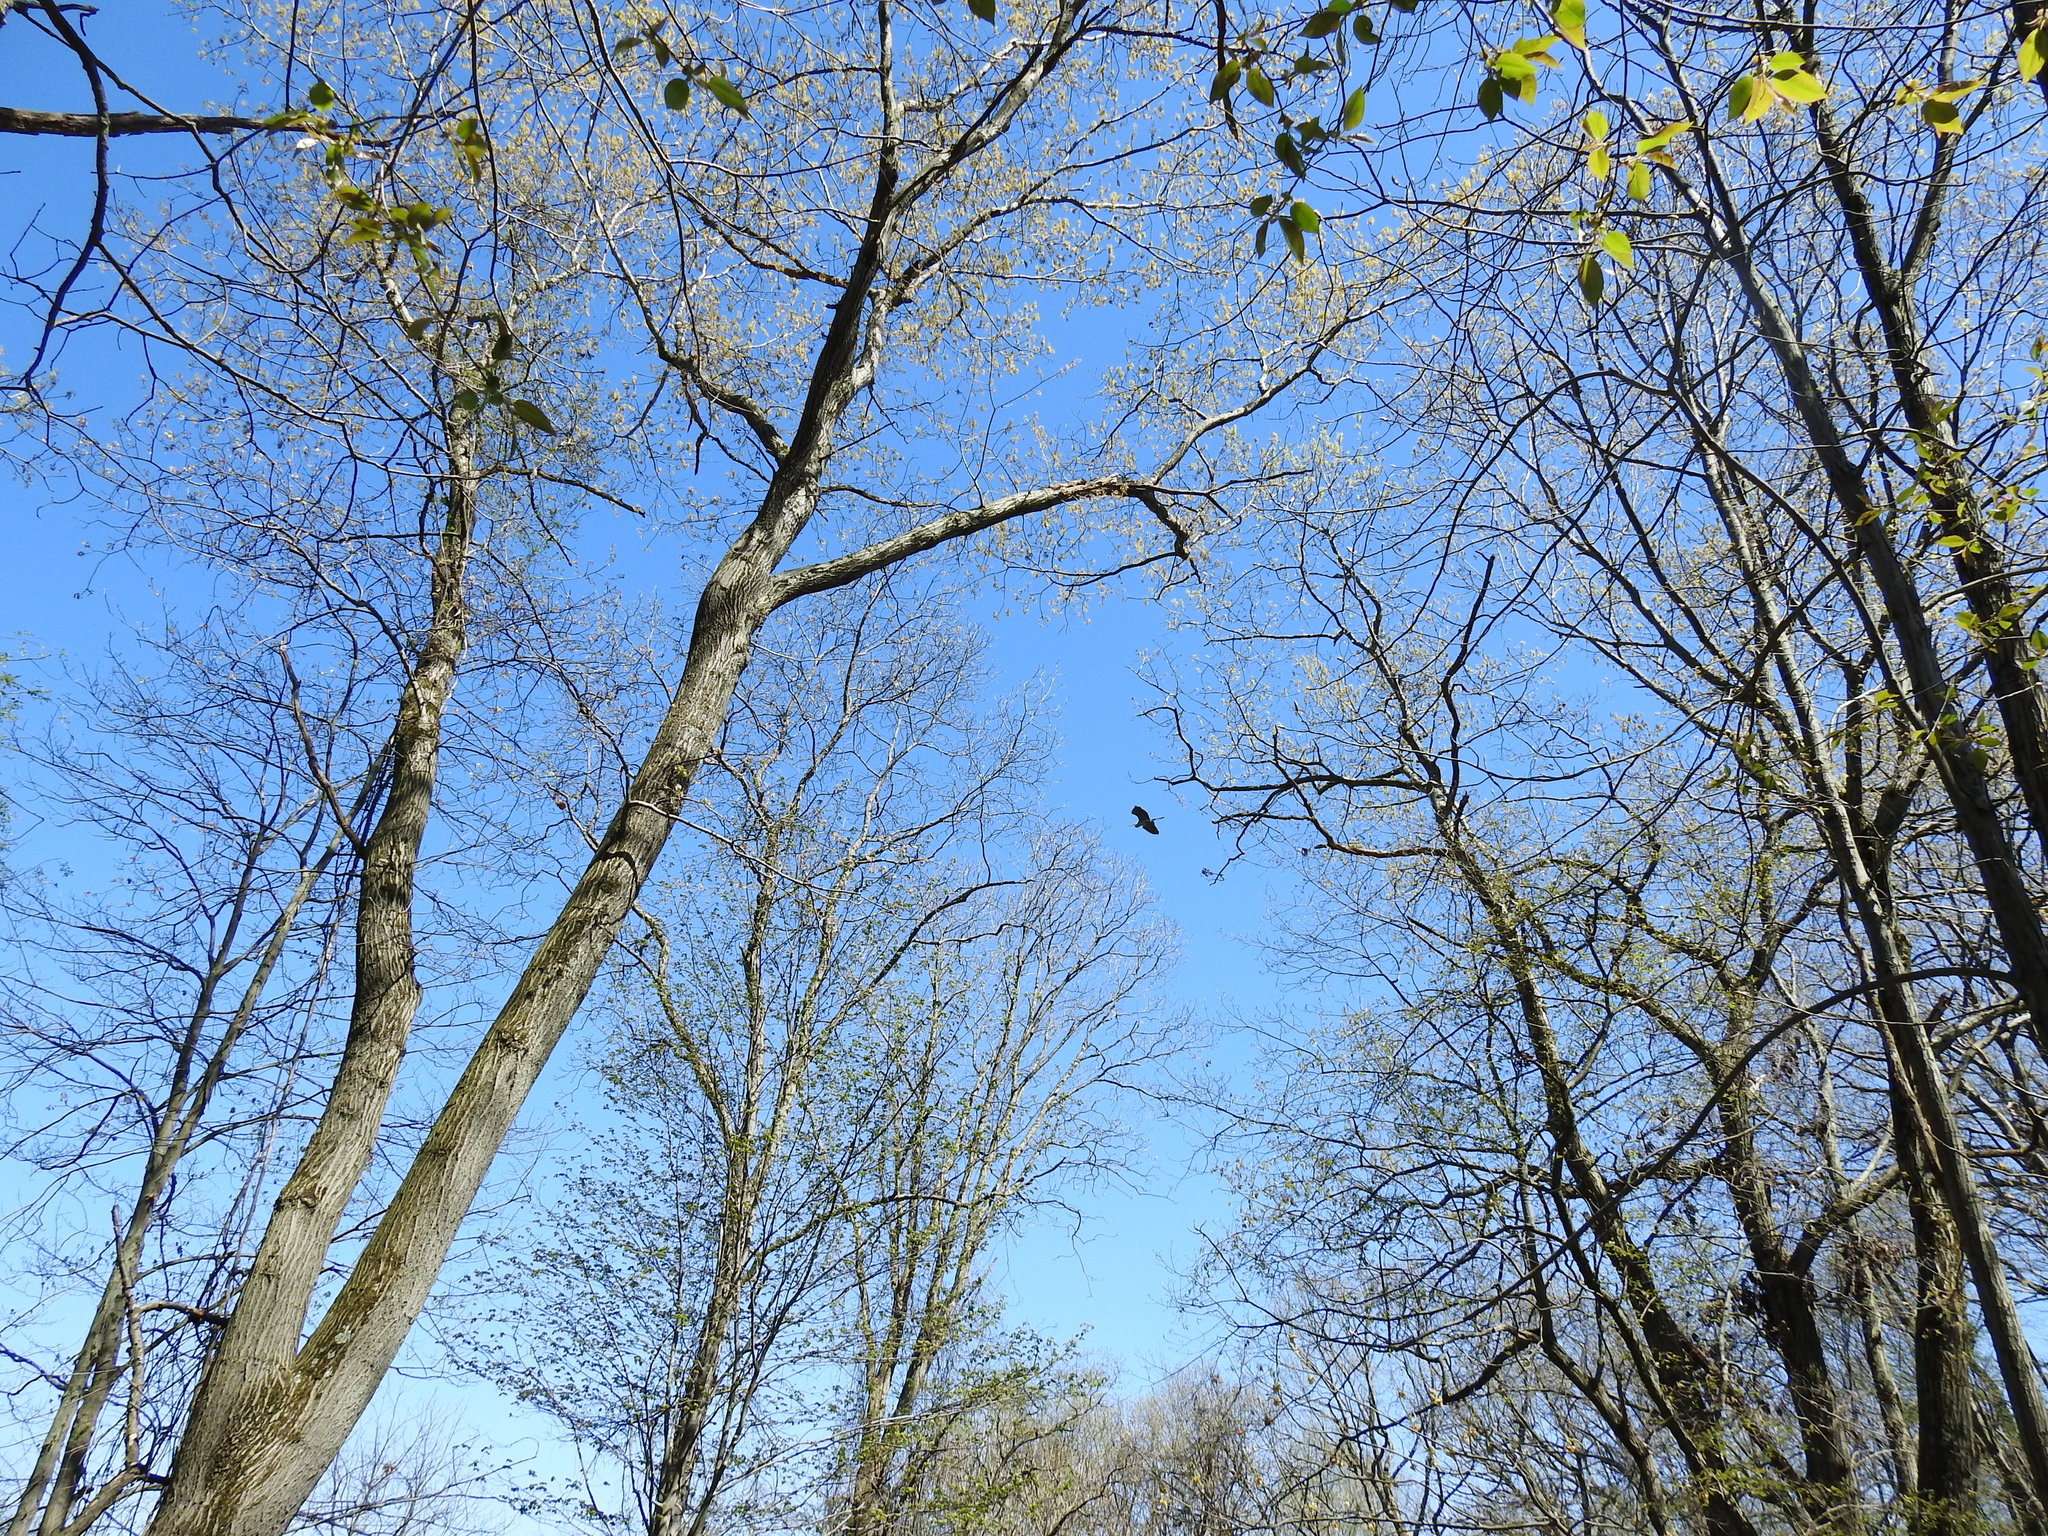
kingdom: Animalia
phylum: Chordata
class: Aves
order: Pelecaniformes
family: Ardeidae
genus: Ardea
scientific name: Ardea herodias
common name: Great blue heron
